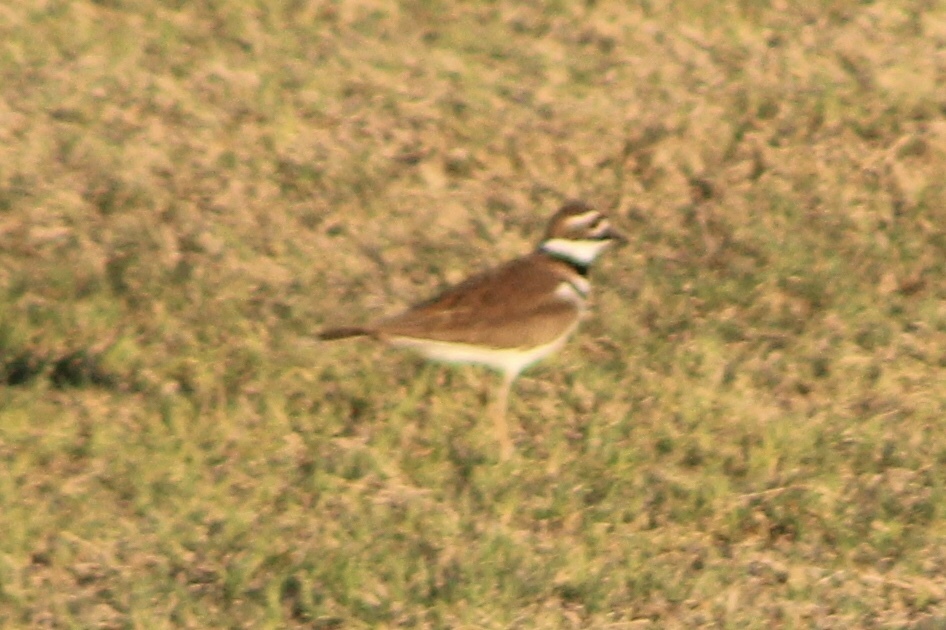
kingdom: Animalia
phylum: Chordata
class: Aves
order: Charadriiformes
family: Charadriidae
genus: Charadrius
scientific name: Charadrius vociferus
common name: Killdeer
